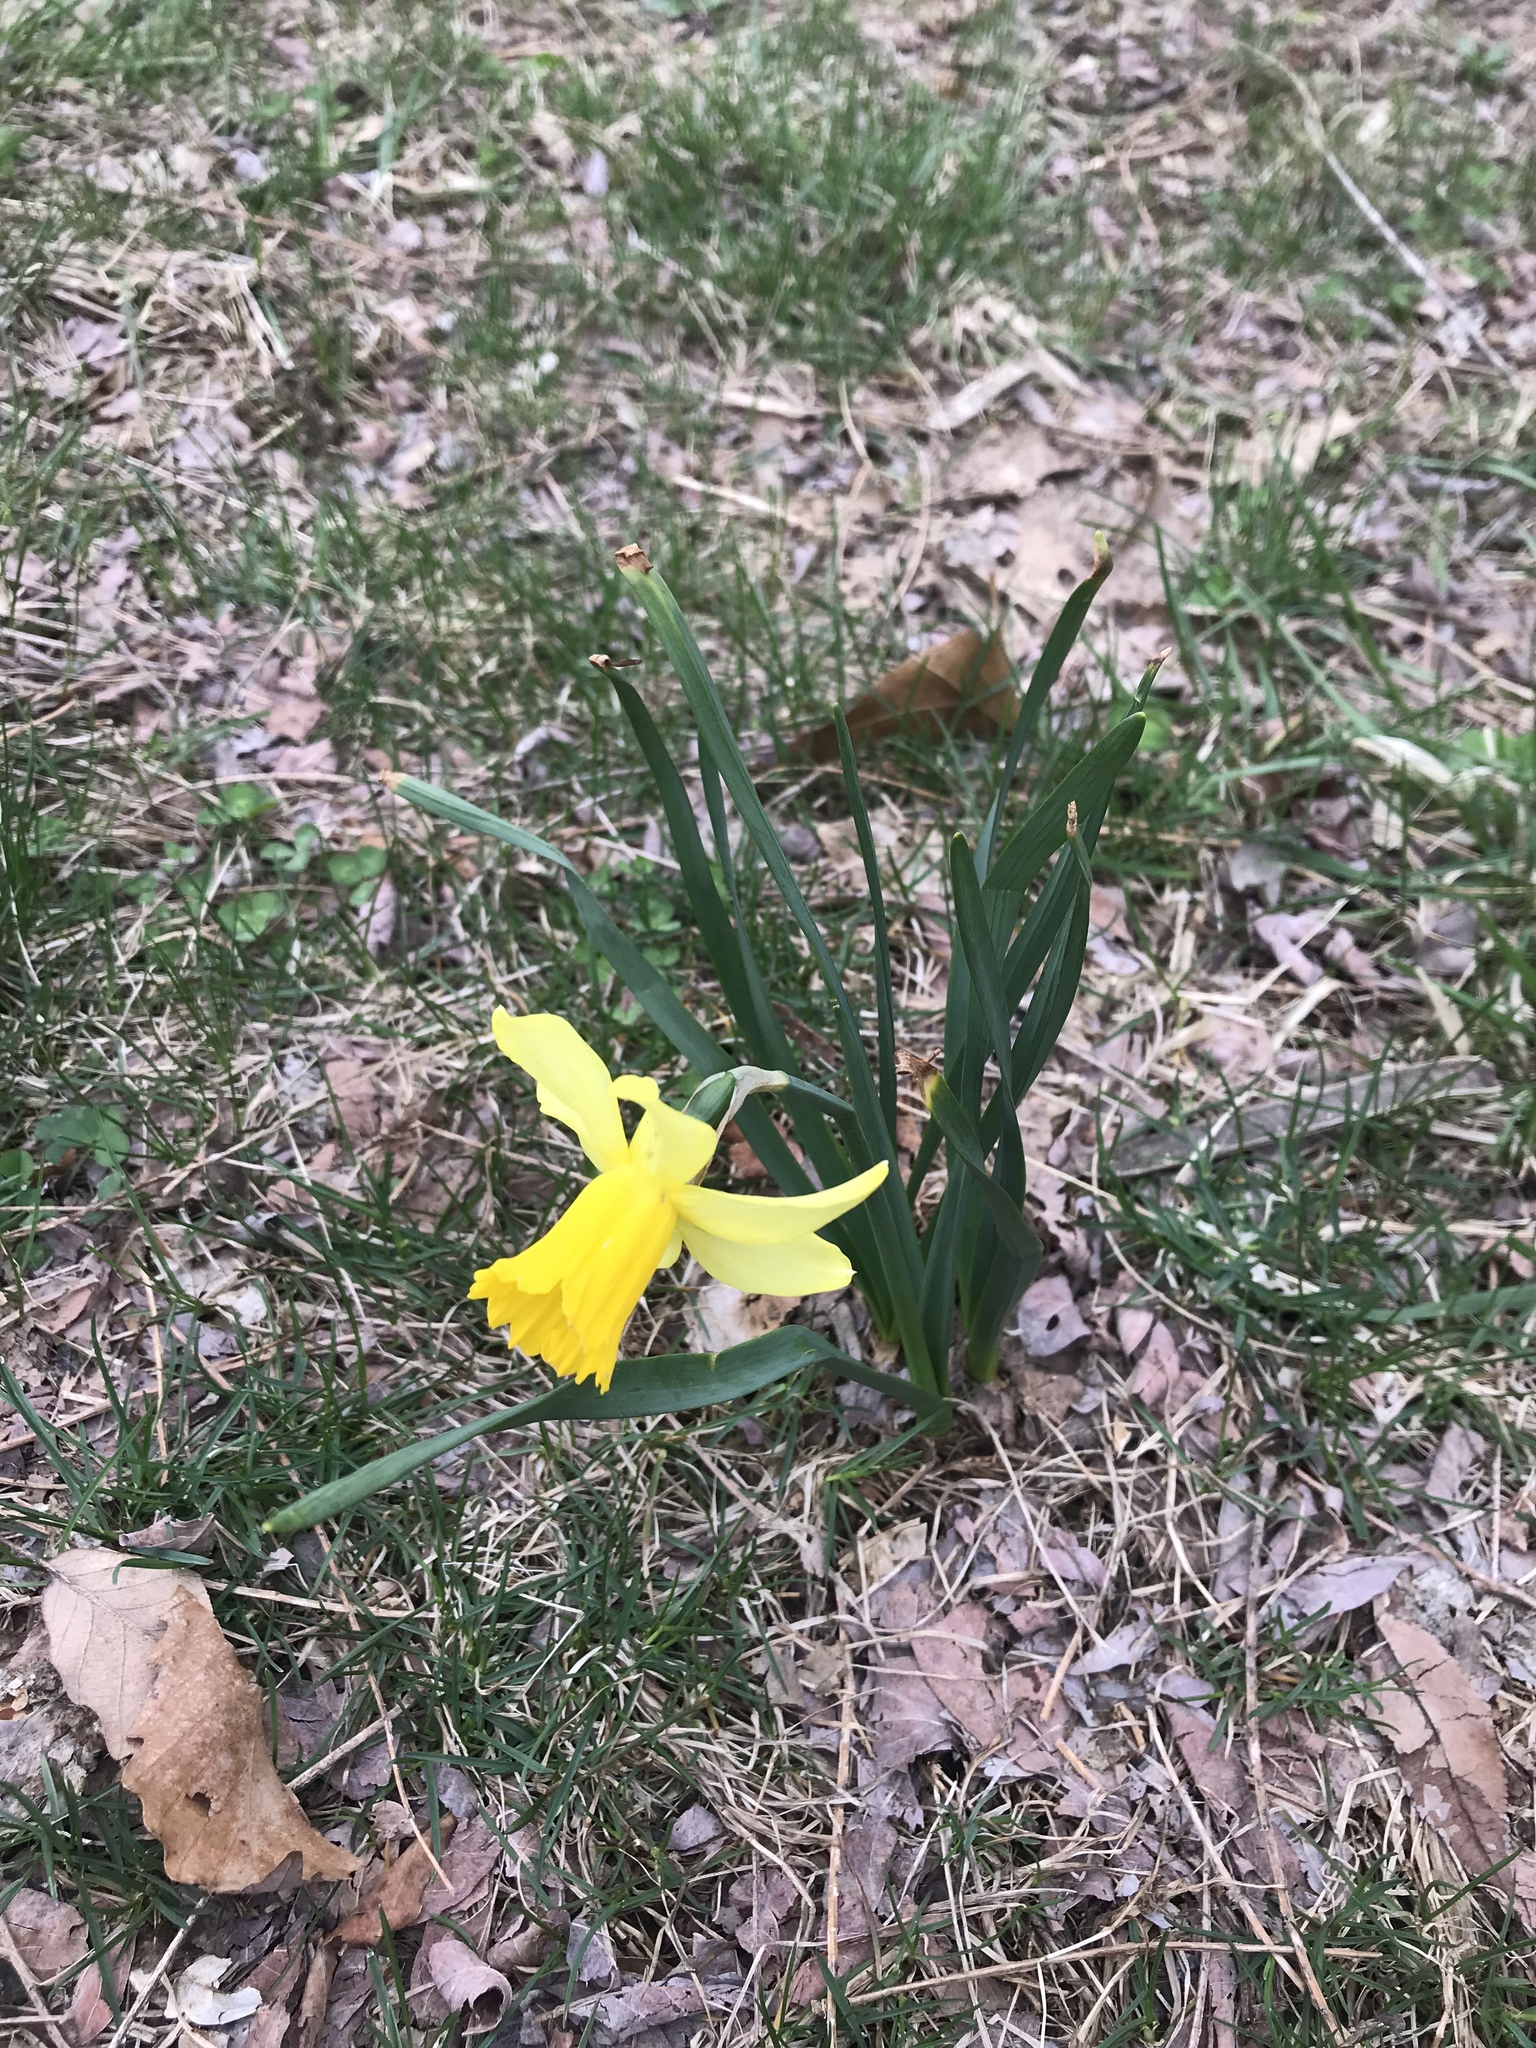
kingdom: Plantae
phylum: Tracheophyta
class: Liliopsida
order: Asparagales
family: Amaryllidaceae
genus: Narcissus
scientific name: Narcissus pseudonarcissus
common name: Daffodil
